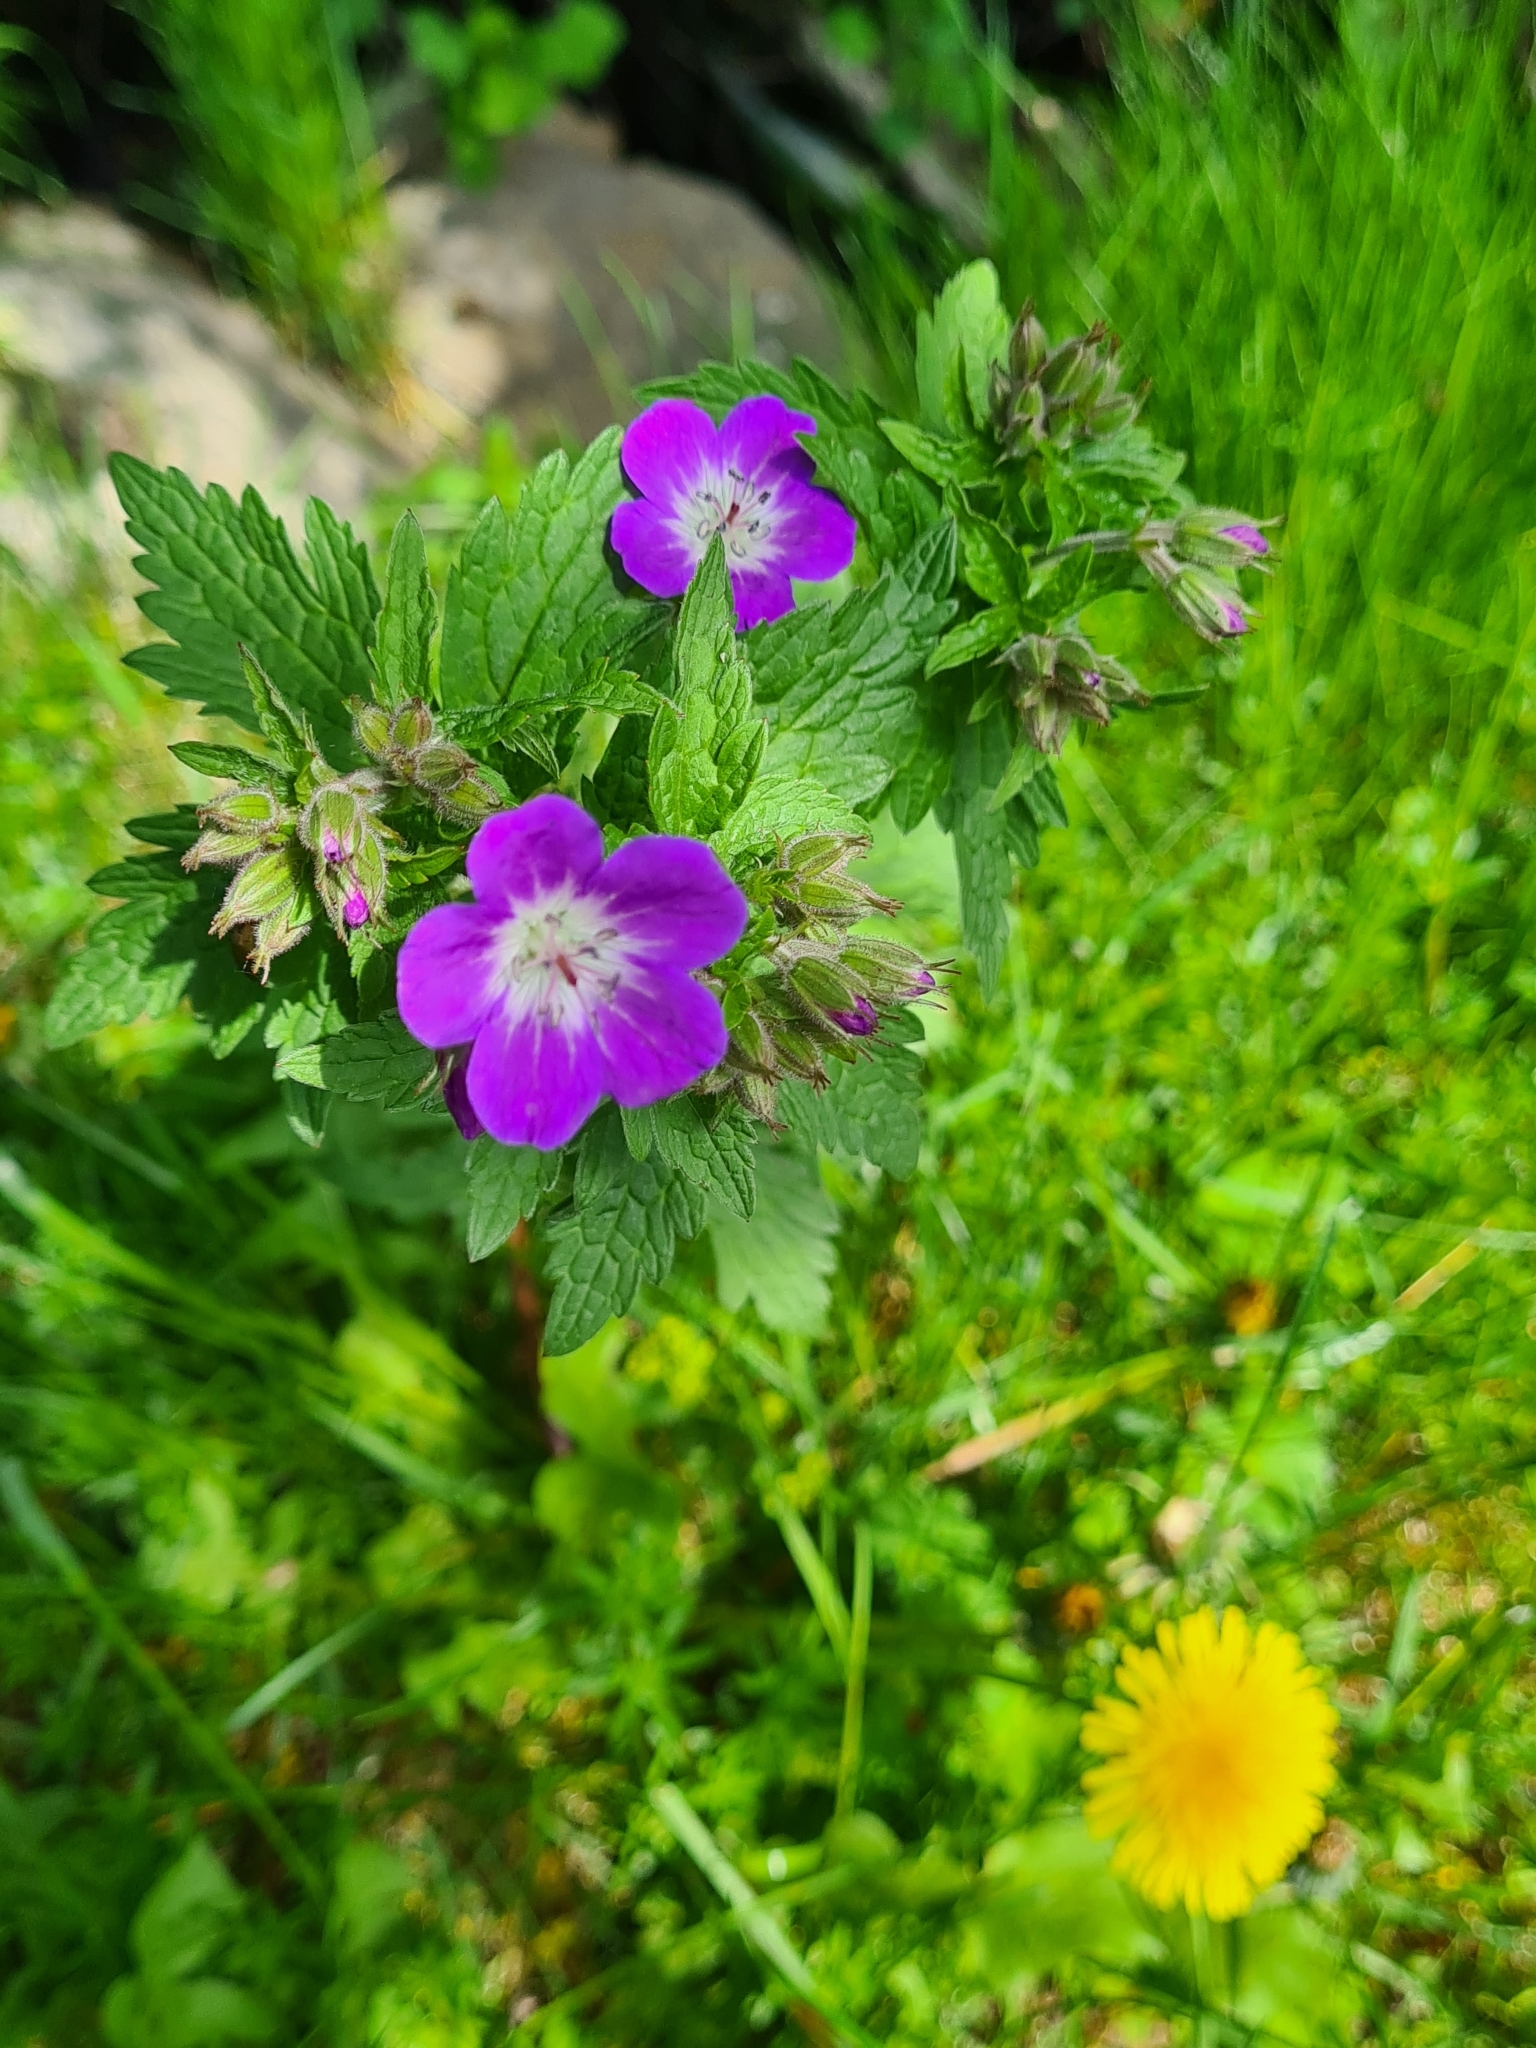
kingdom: Plantae
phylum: Tracheophyta
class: Magnoliopsida
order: Geraniales
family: Geraniaceae
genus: Geranium
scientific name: Geranium sylvaticum
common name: Wood crane's-bill
